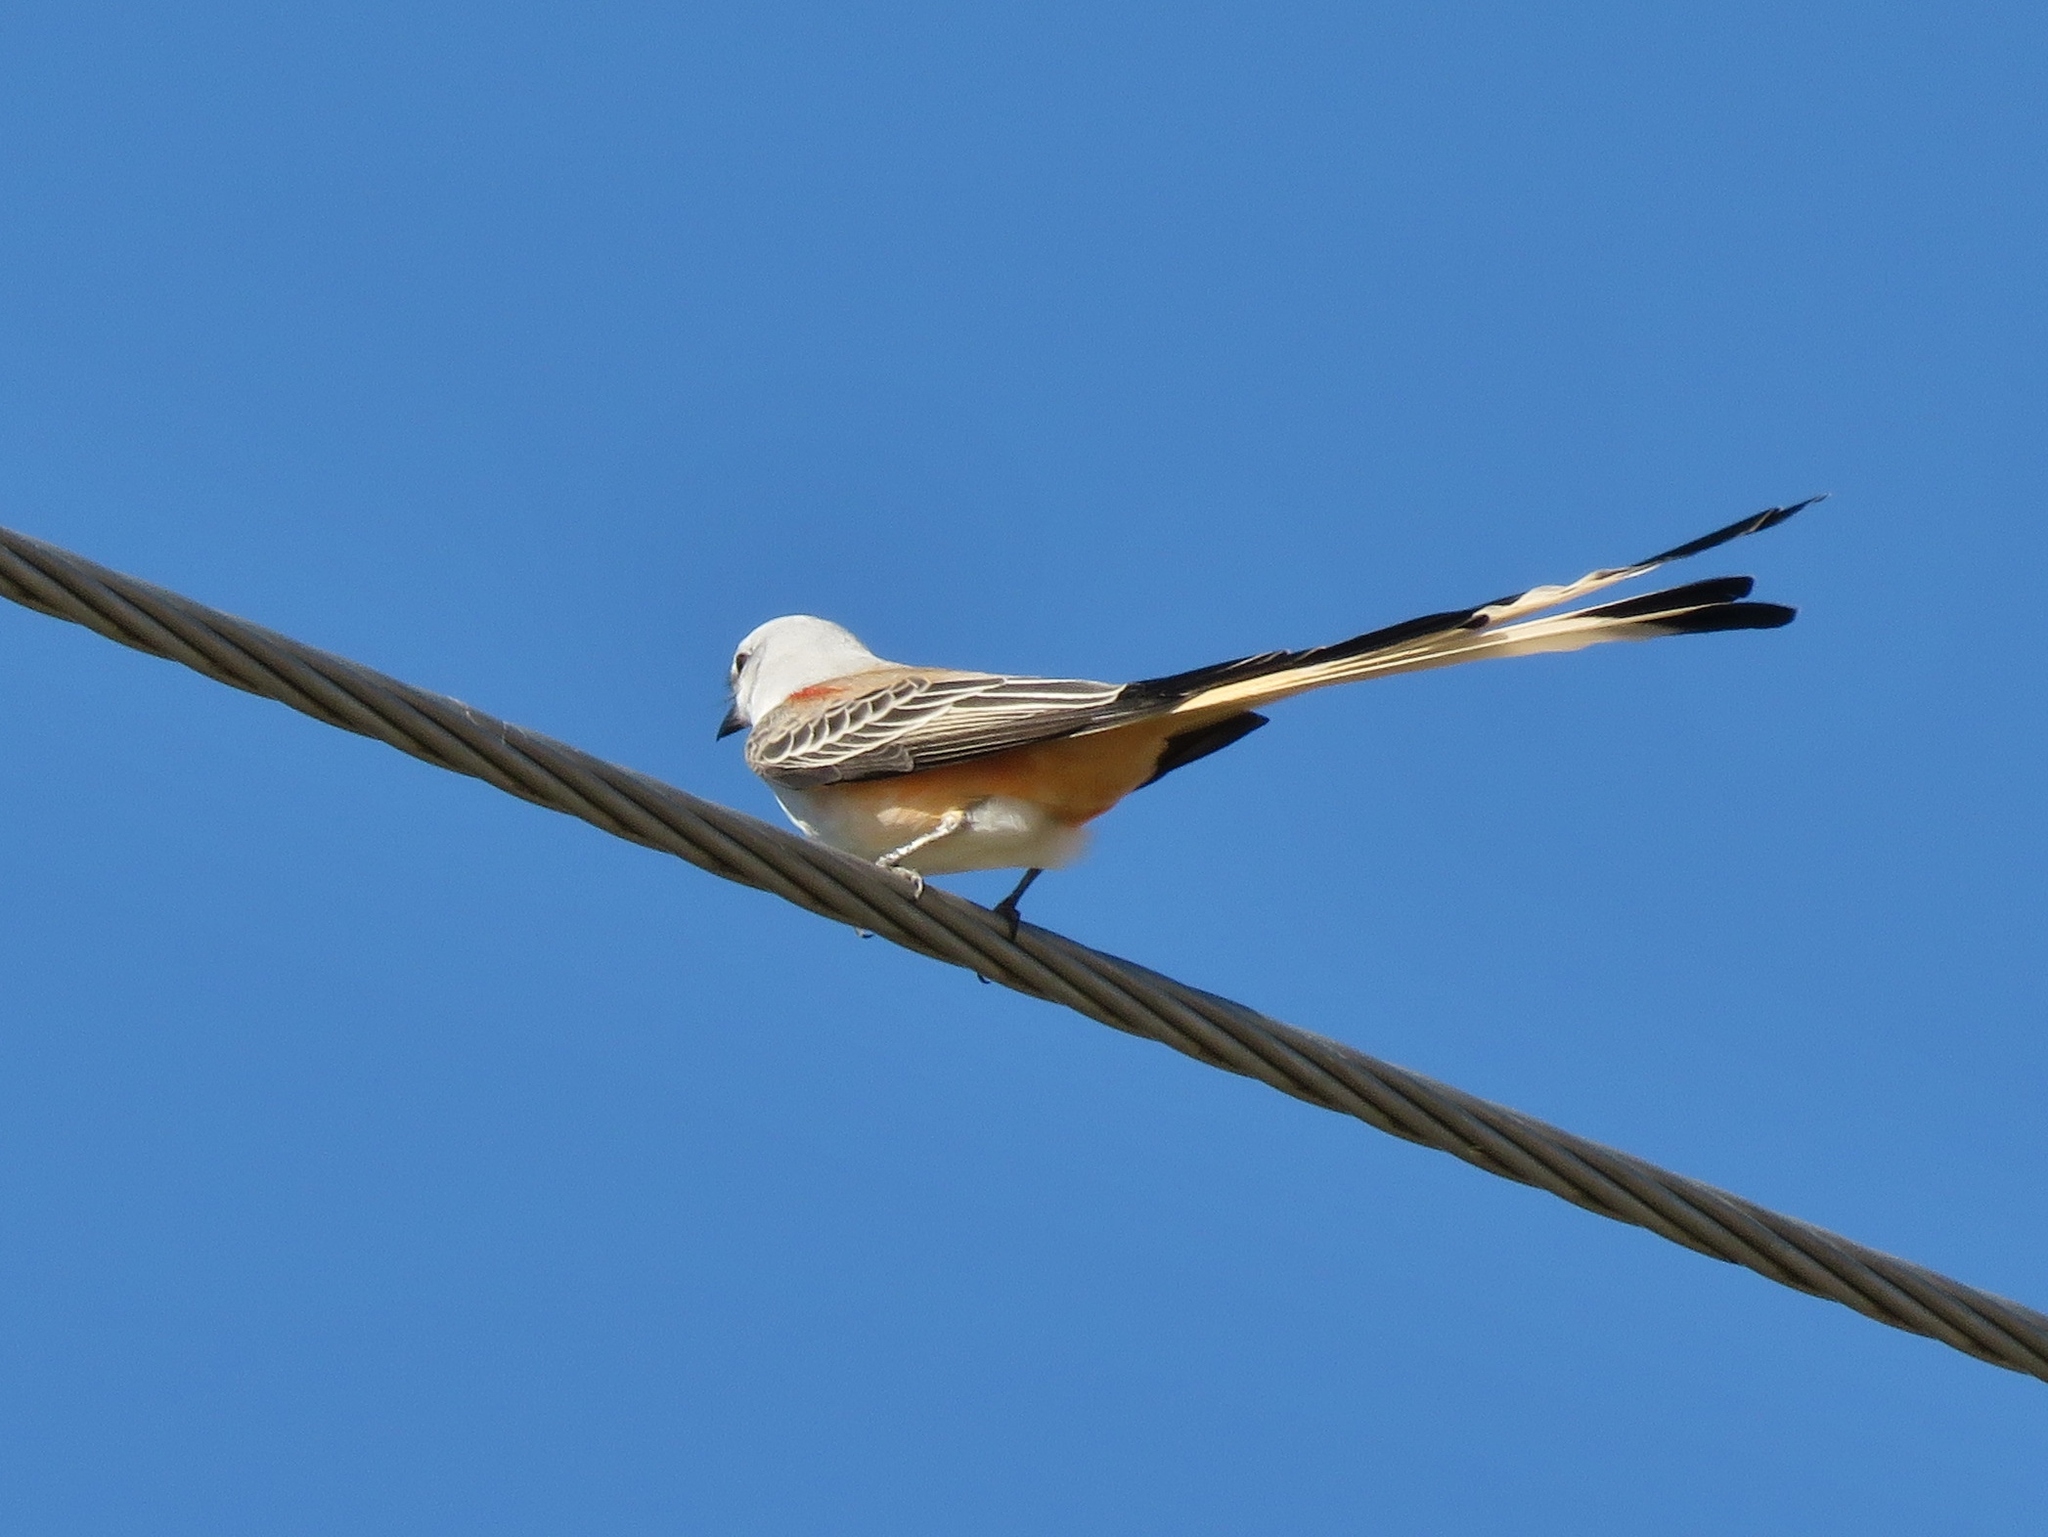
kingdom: Animalia
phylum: Chordata
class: Aves
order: Passeriformes
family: Tyrannidae
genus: Tyrannus
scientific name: Tyrannus forficatus
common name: Scissor-tailed flycatcher
